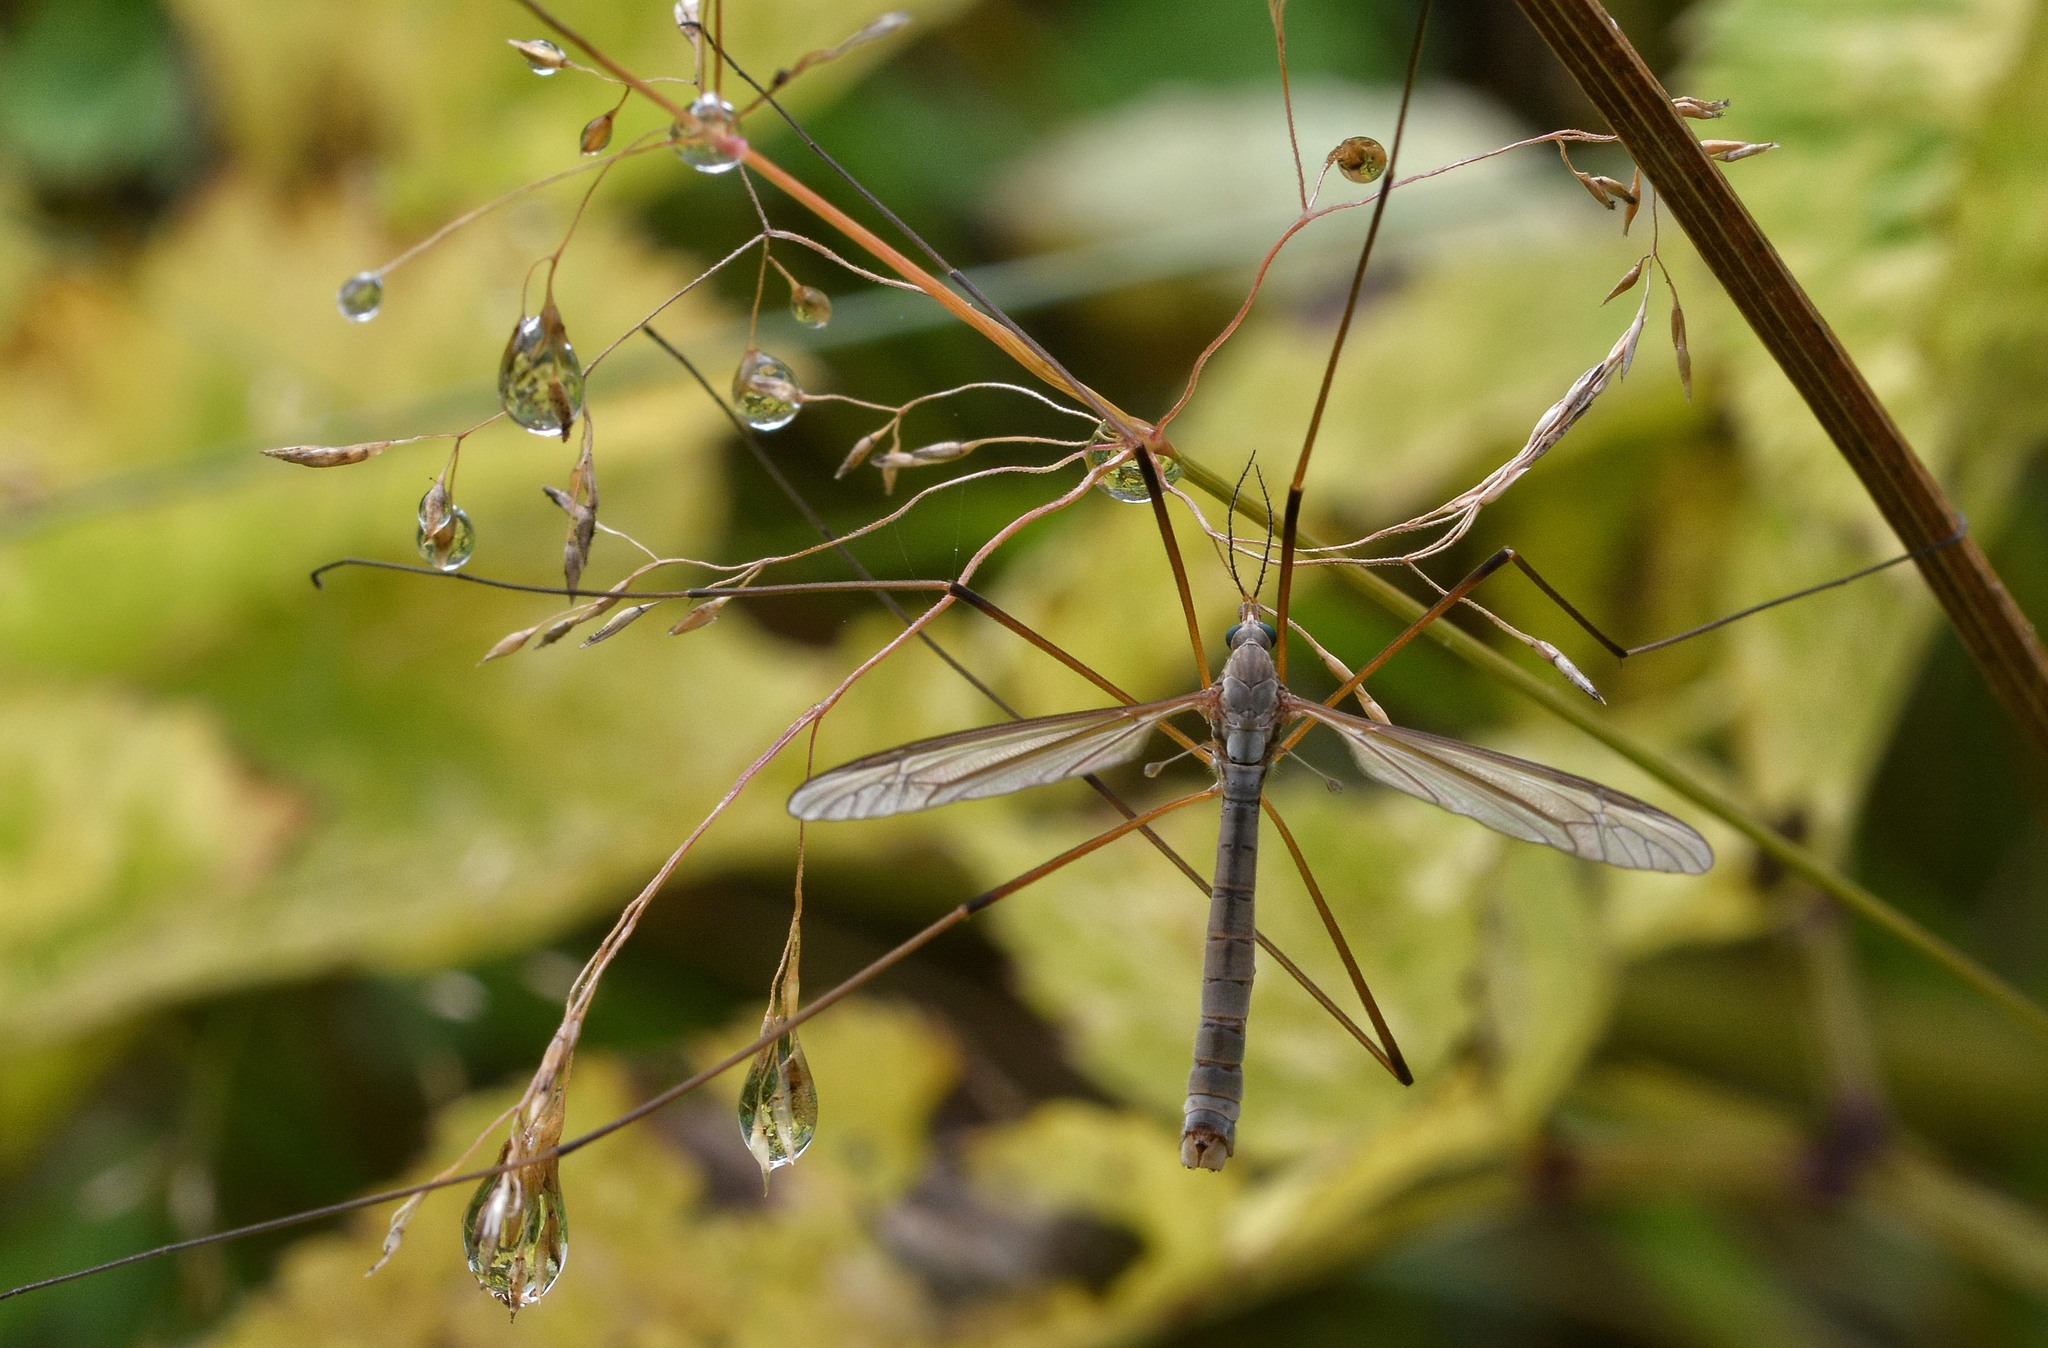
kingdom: Animalia
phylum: Arthropoda
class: Insecta
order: Diptera
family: Tipulidae
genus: Tipula
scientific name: Tipula oleracea
